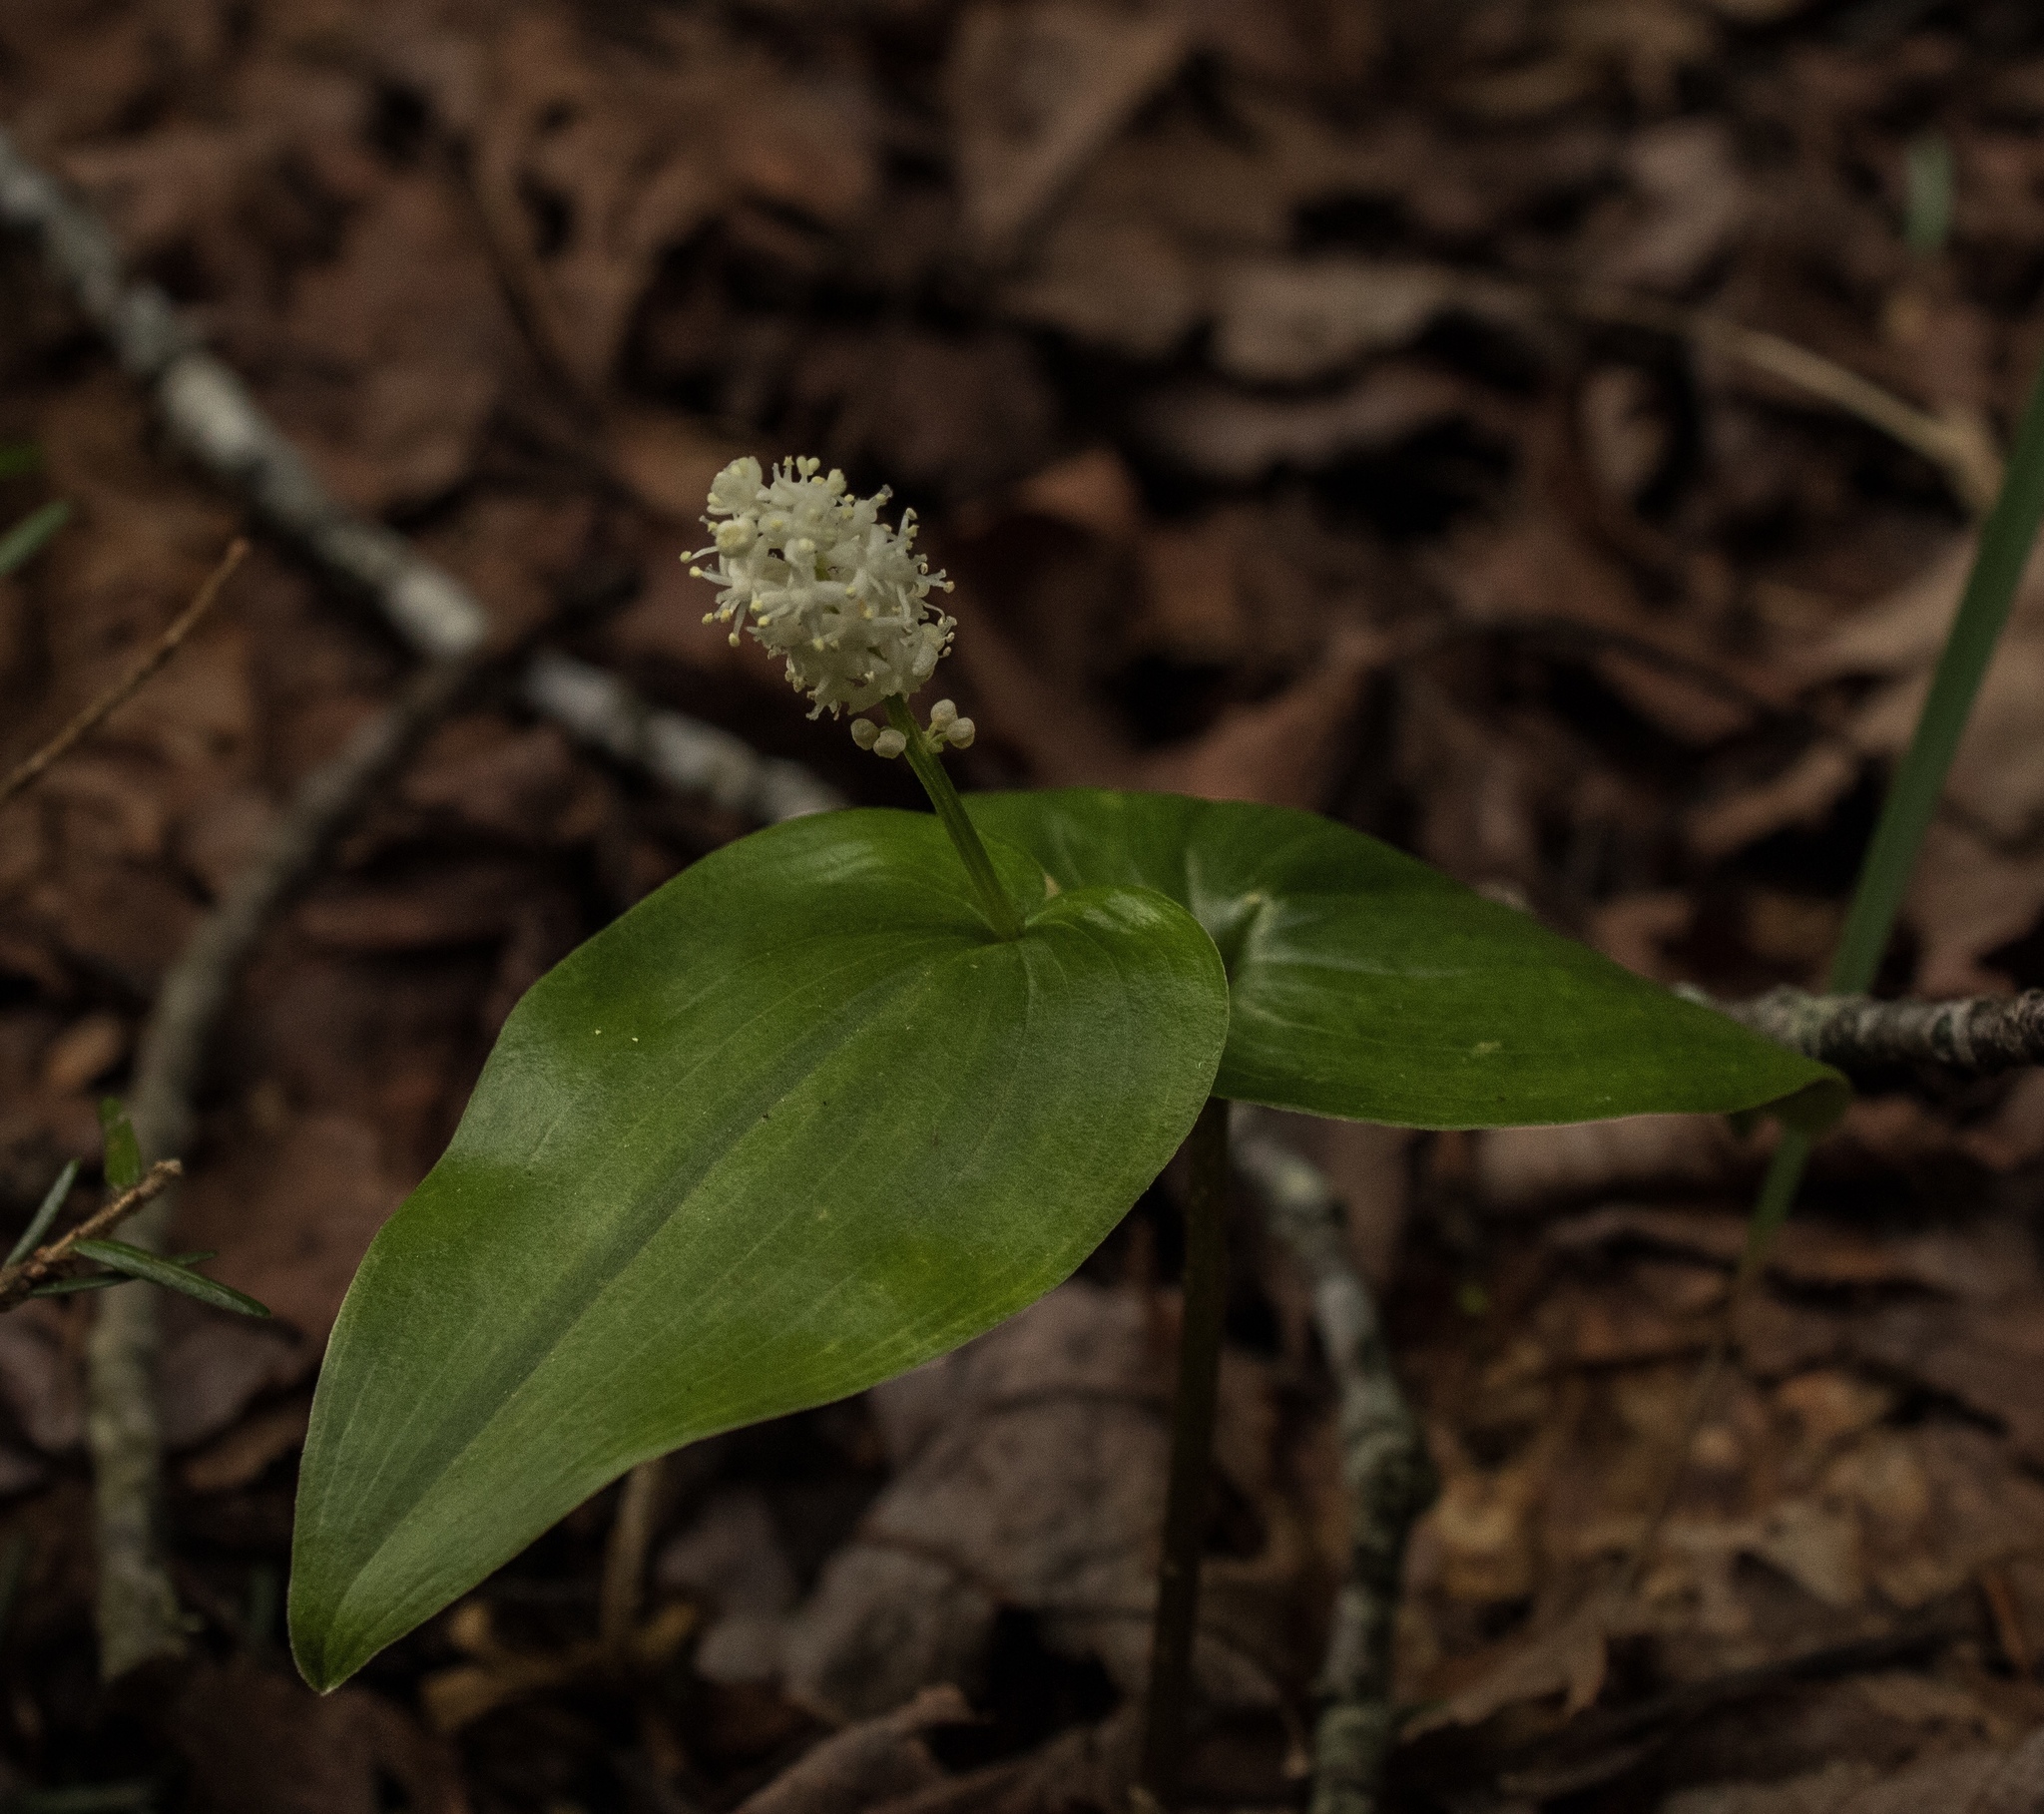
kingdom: Plantae
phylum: Tracheophyta
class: Liliopsida
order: Asparagales
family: Asparagaceae
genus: Maianthemum
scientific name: Maianthemum canadense
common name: False lily-of-the-valley
